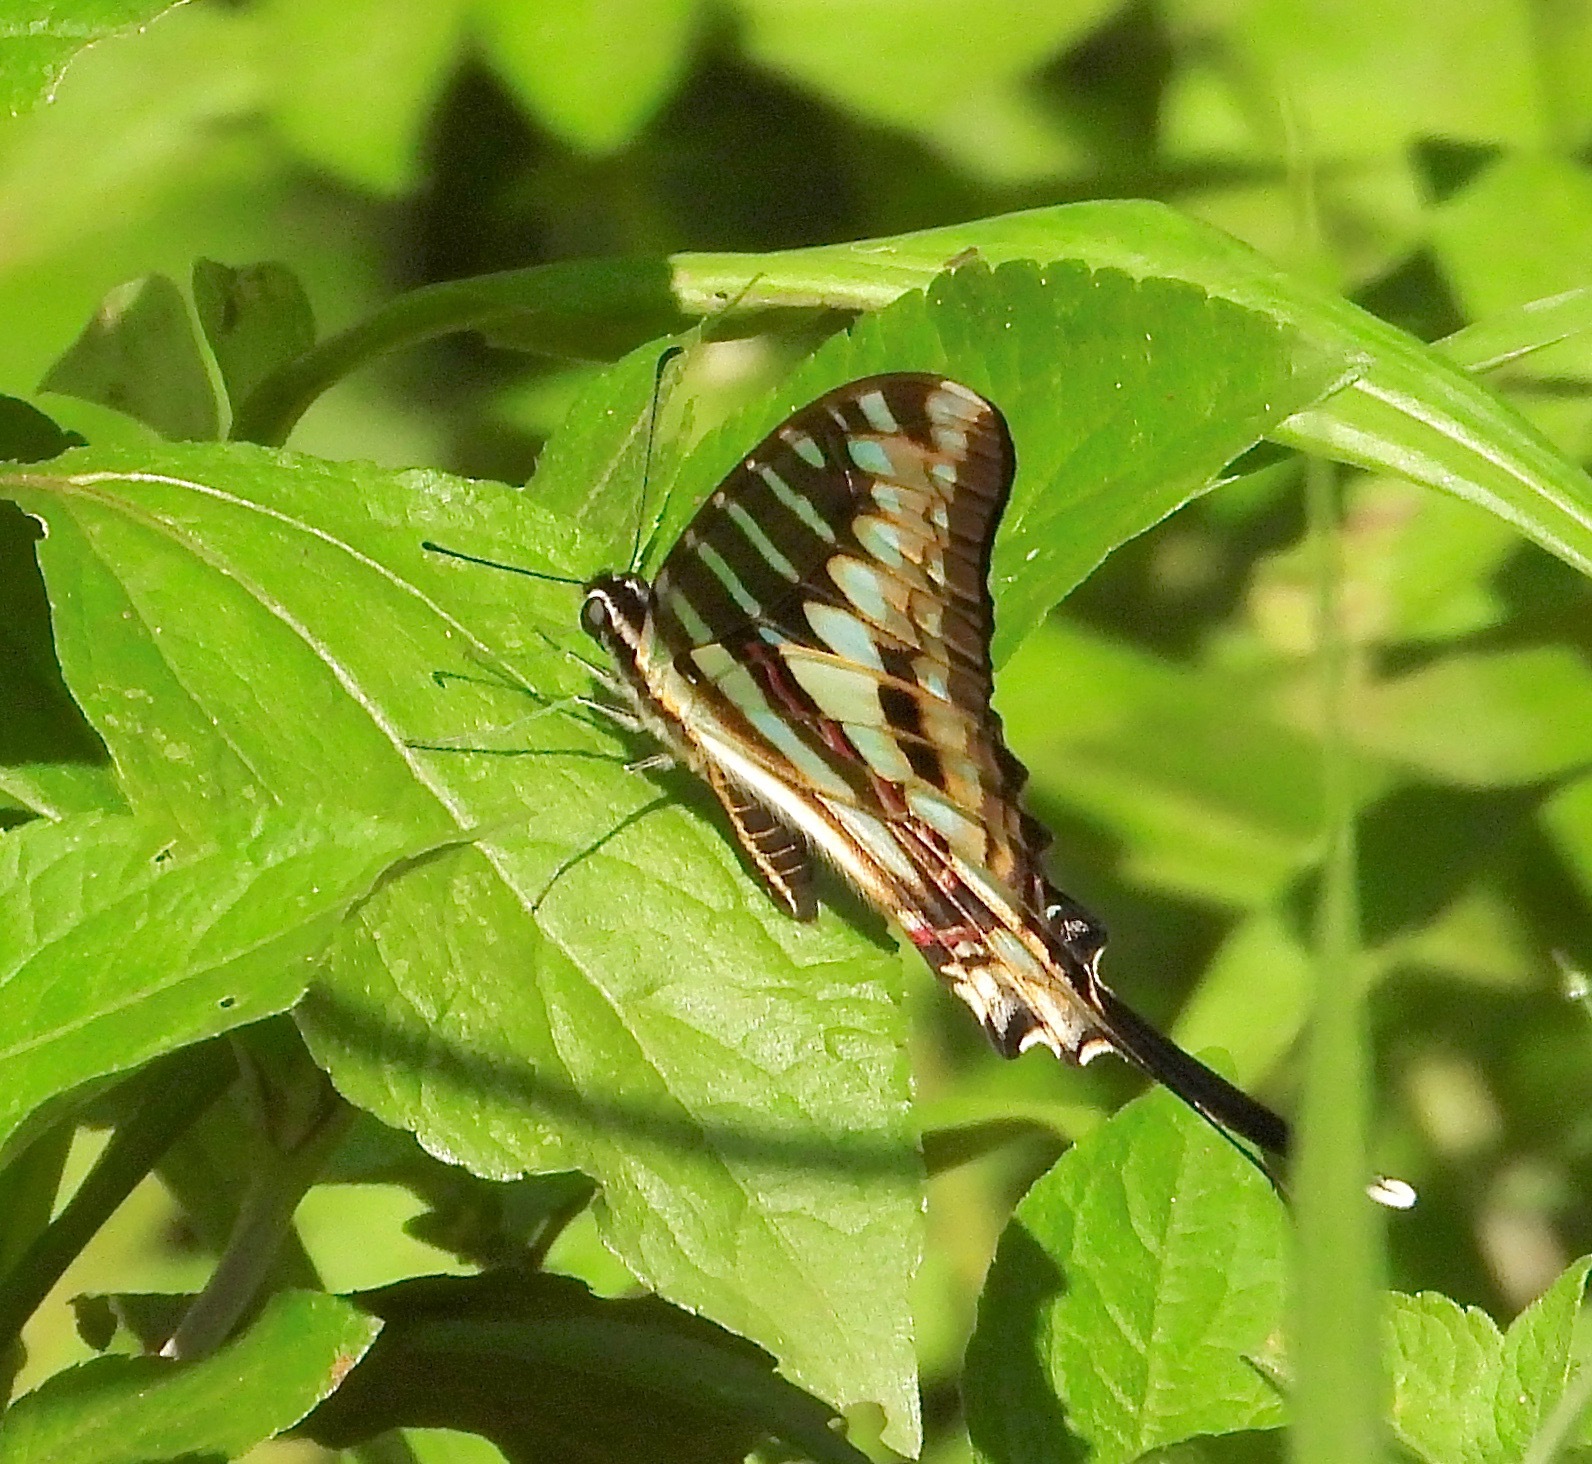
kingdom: Animalia
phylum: Arthropoda
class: Insecta
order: Lepidoptera
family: Papilionidae
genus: Graphium
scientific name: Graphium policenes
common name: Common swordtail
